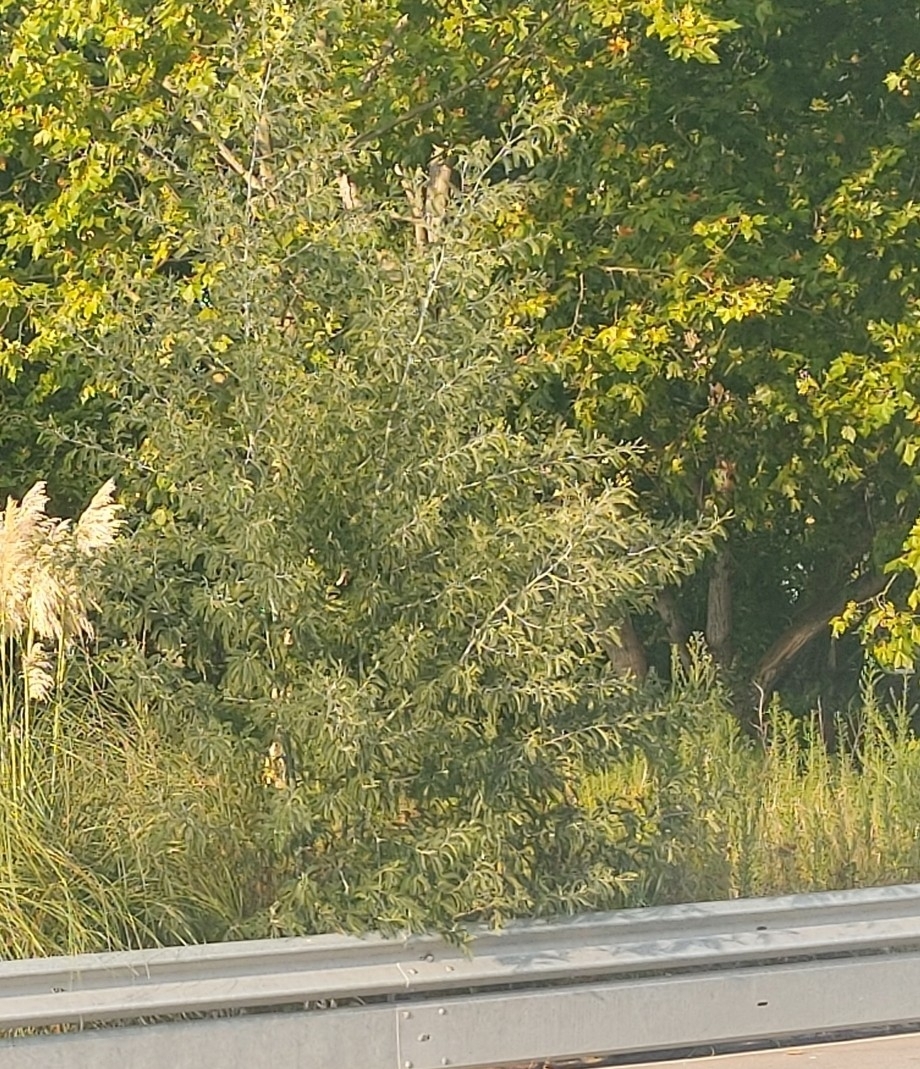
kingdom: Plantae
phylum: Tracheophyta
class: Magnoliopsida
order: Fabales
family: Fabaceae
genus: Acacia
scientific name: Acacia dealbata
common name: Silver wattle
